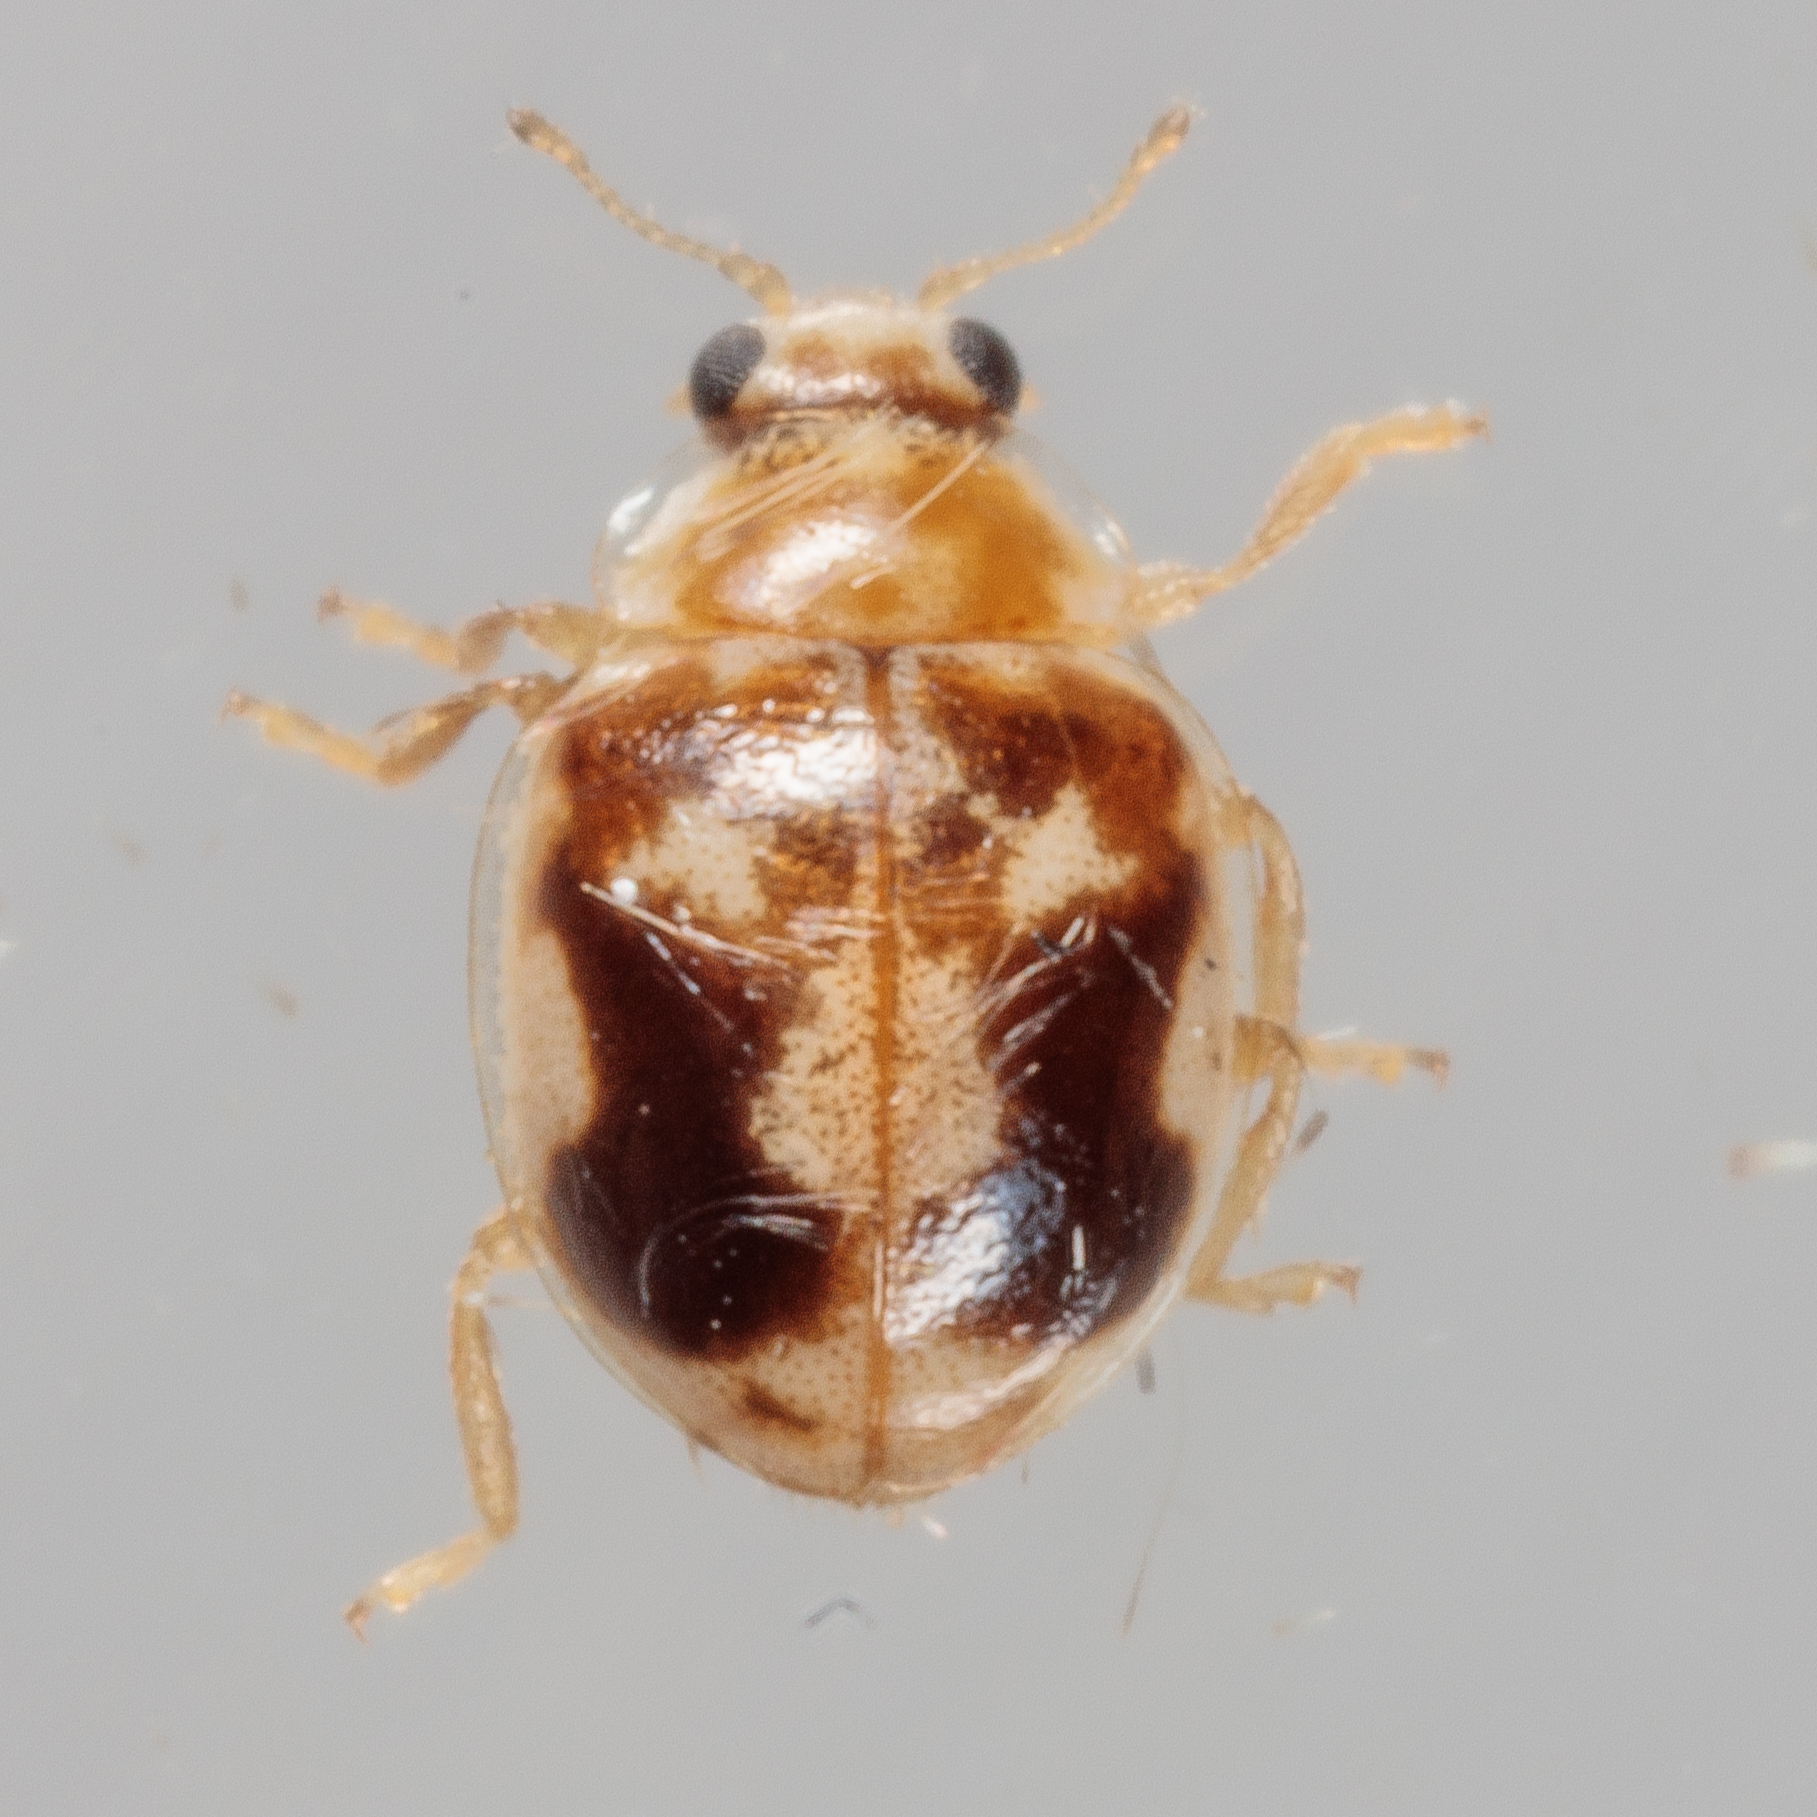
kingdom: Animalia
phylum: Arthropoda
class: Insecta
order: Coleoptera
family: Coccinellidae
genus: Psyllobora
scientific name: Psyllobora renifer
